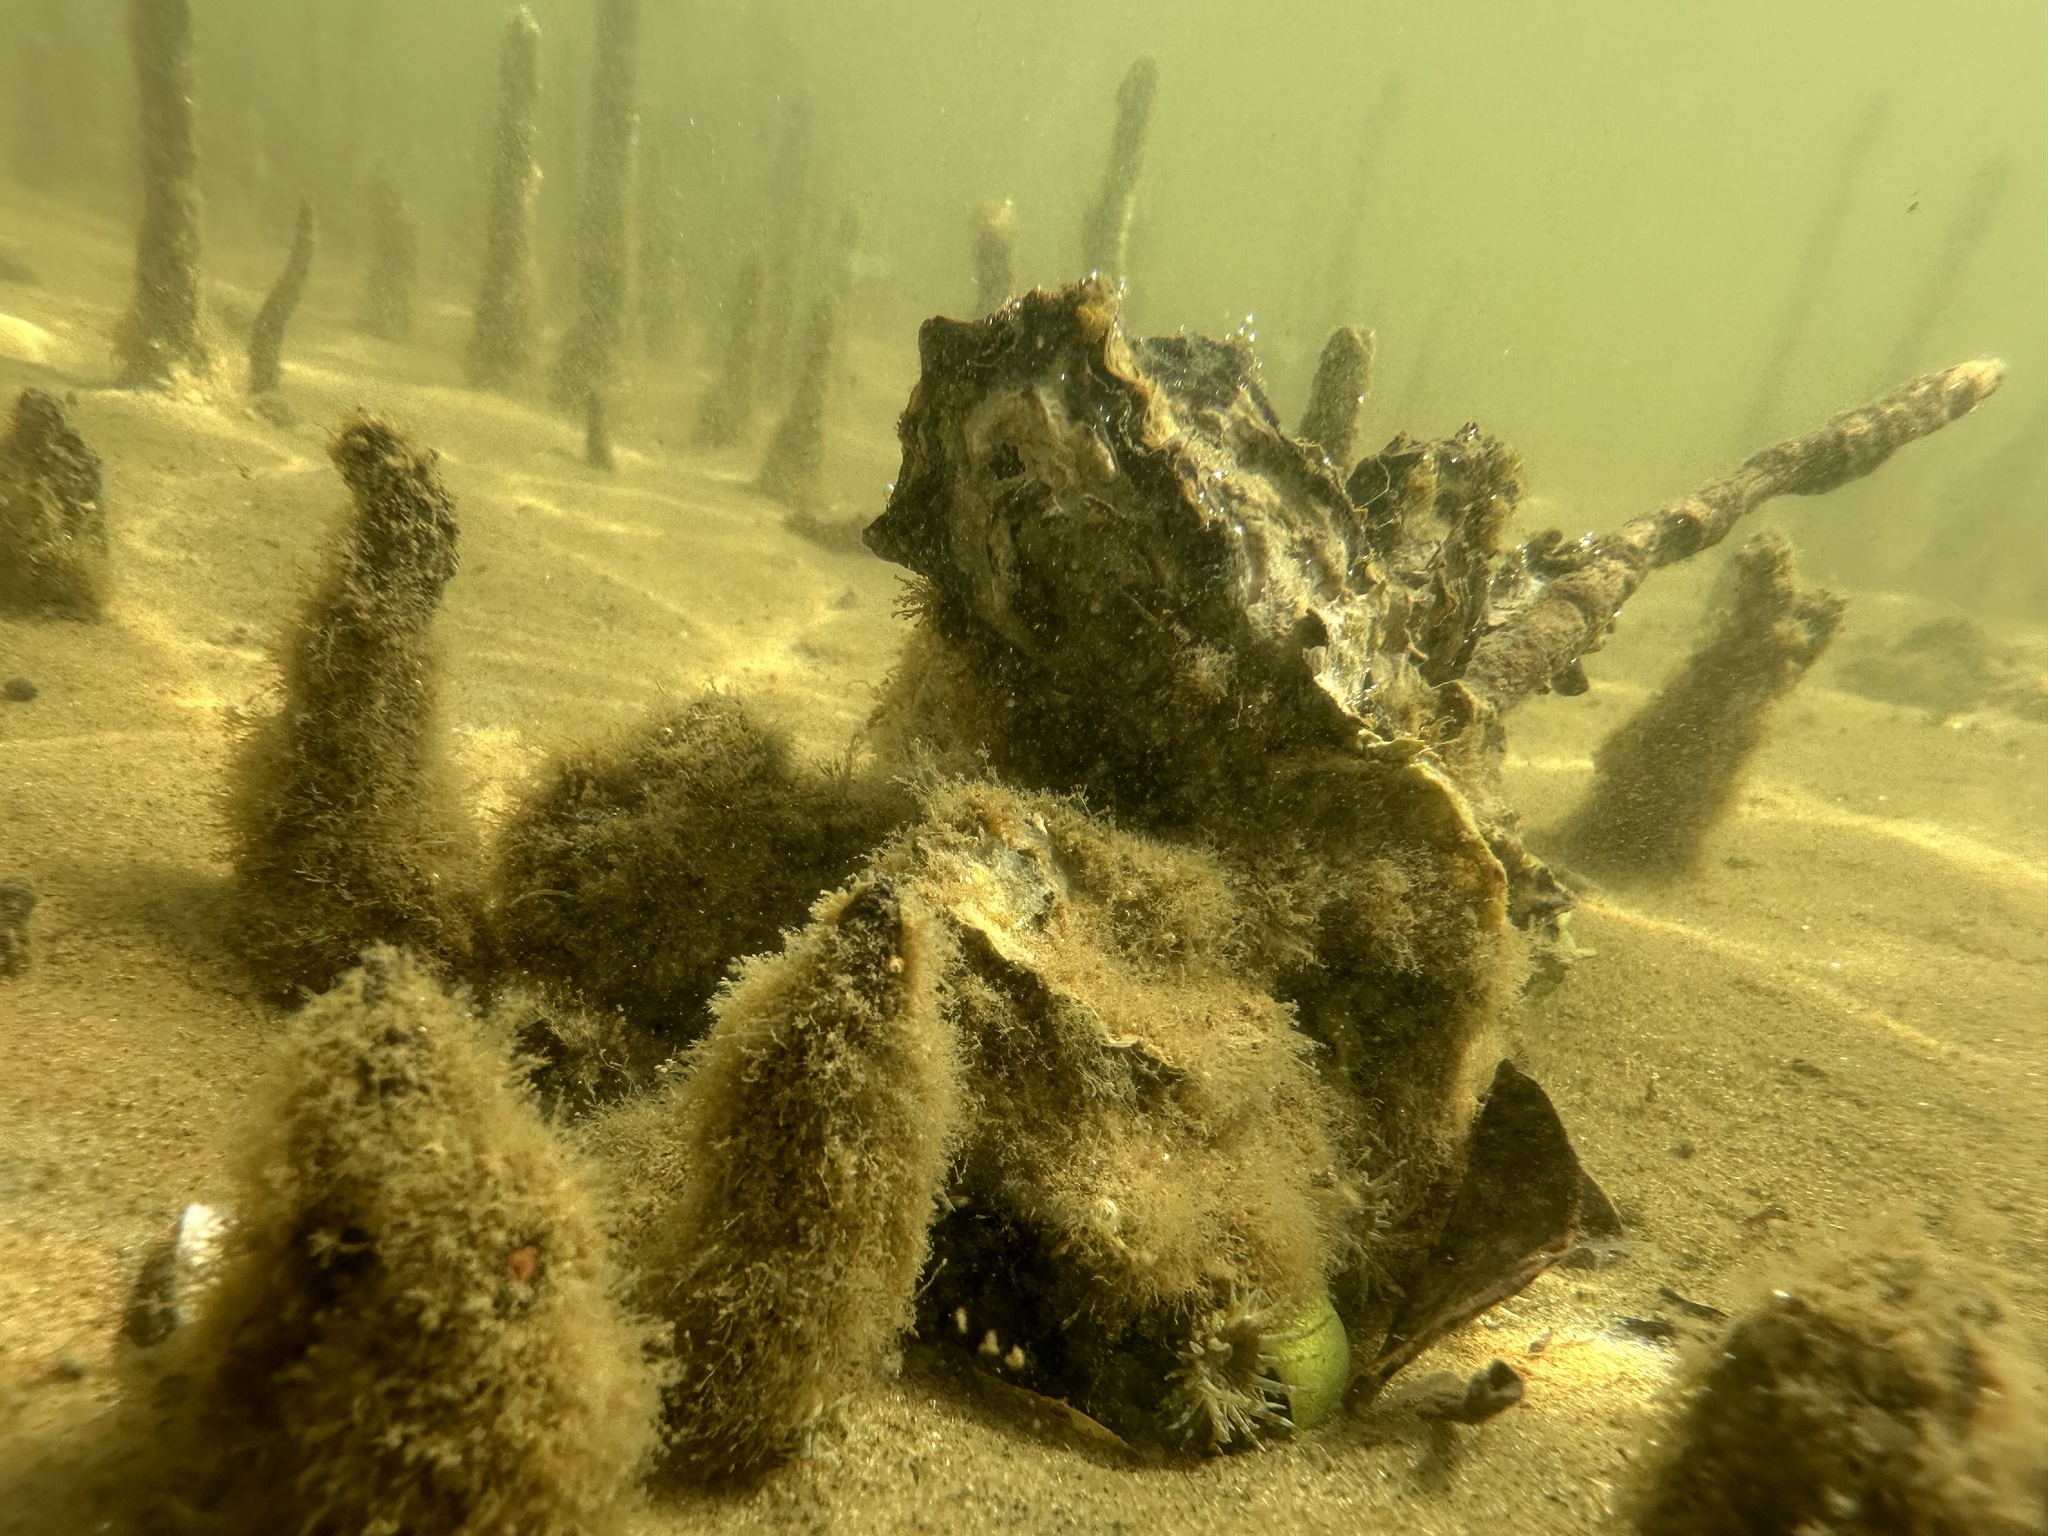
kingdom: Animalia
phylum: Mollusca
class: Bivalvia
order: Ostreida
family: Ostreidae
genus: Magallana
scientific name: Magallana gigas
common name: Pacific oyster
